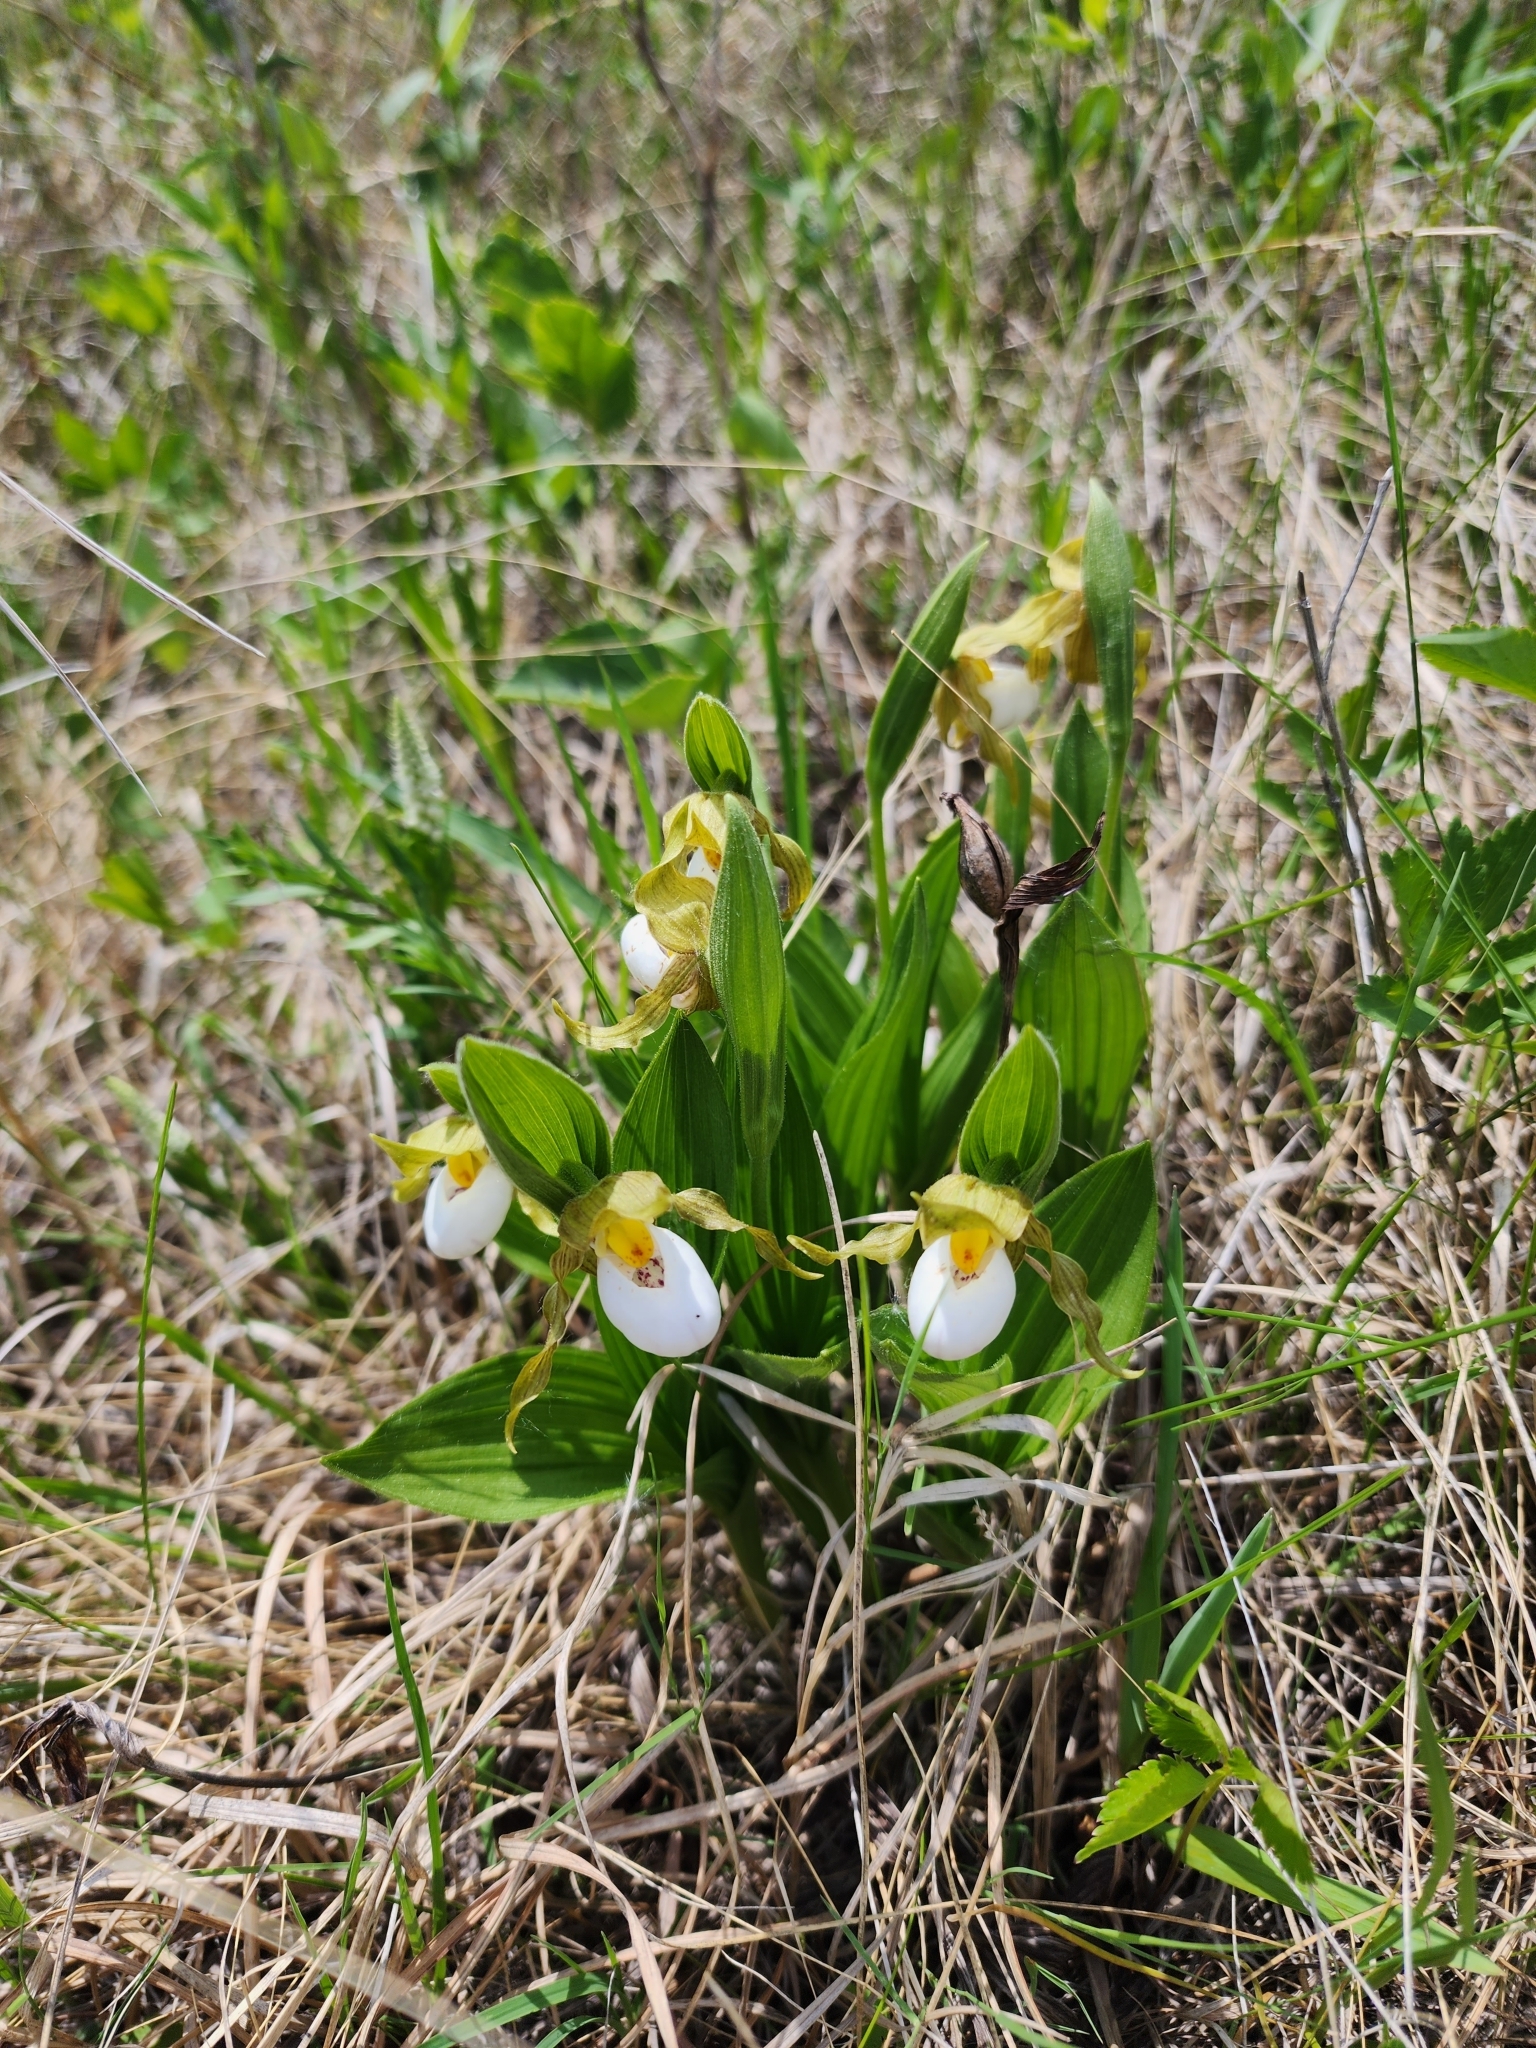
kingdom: Plantae
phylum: Tracheophyta
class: Liliopsida
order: Asparagales
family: Orchidaceae
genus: Cypripedium
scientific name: Cypripedium candidum
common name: White lady's-slipper
